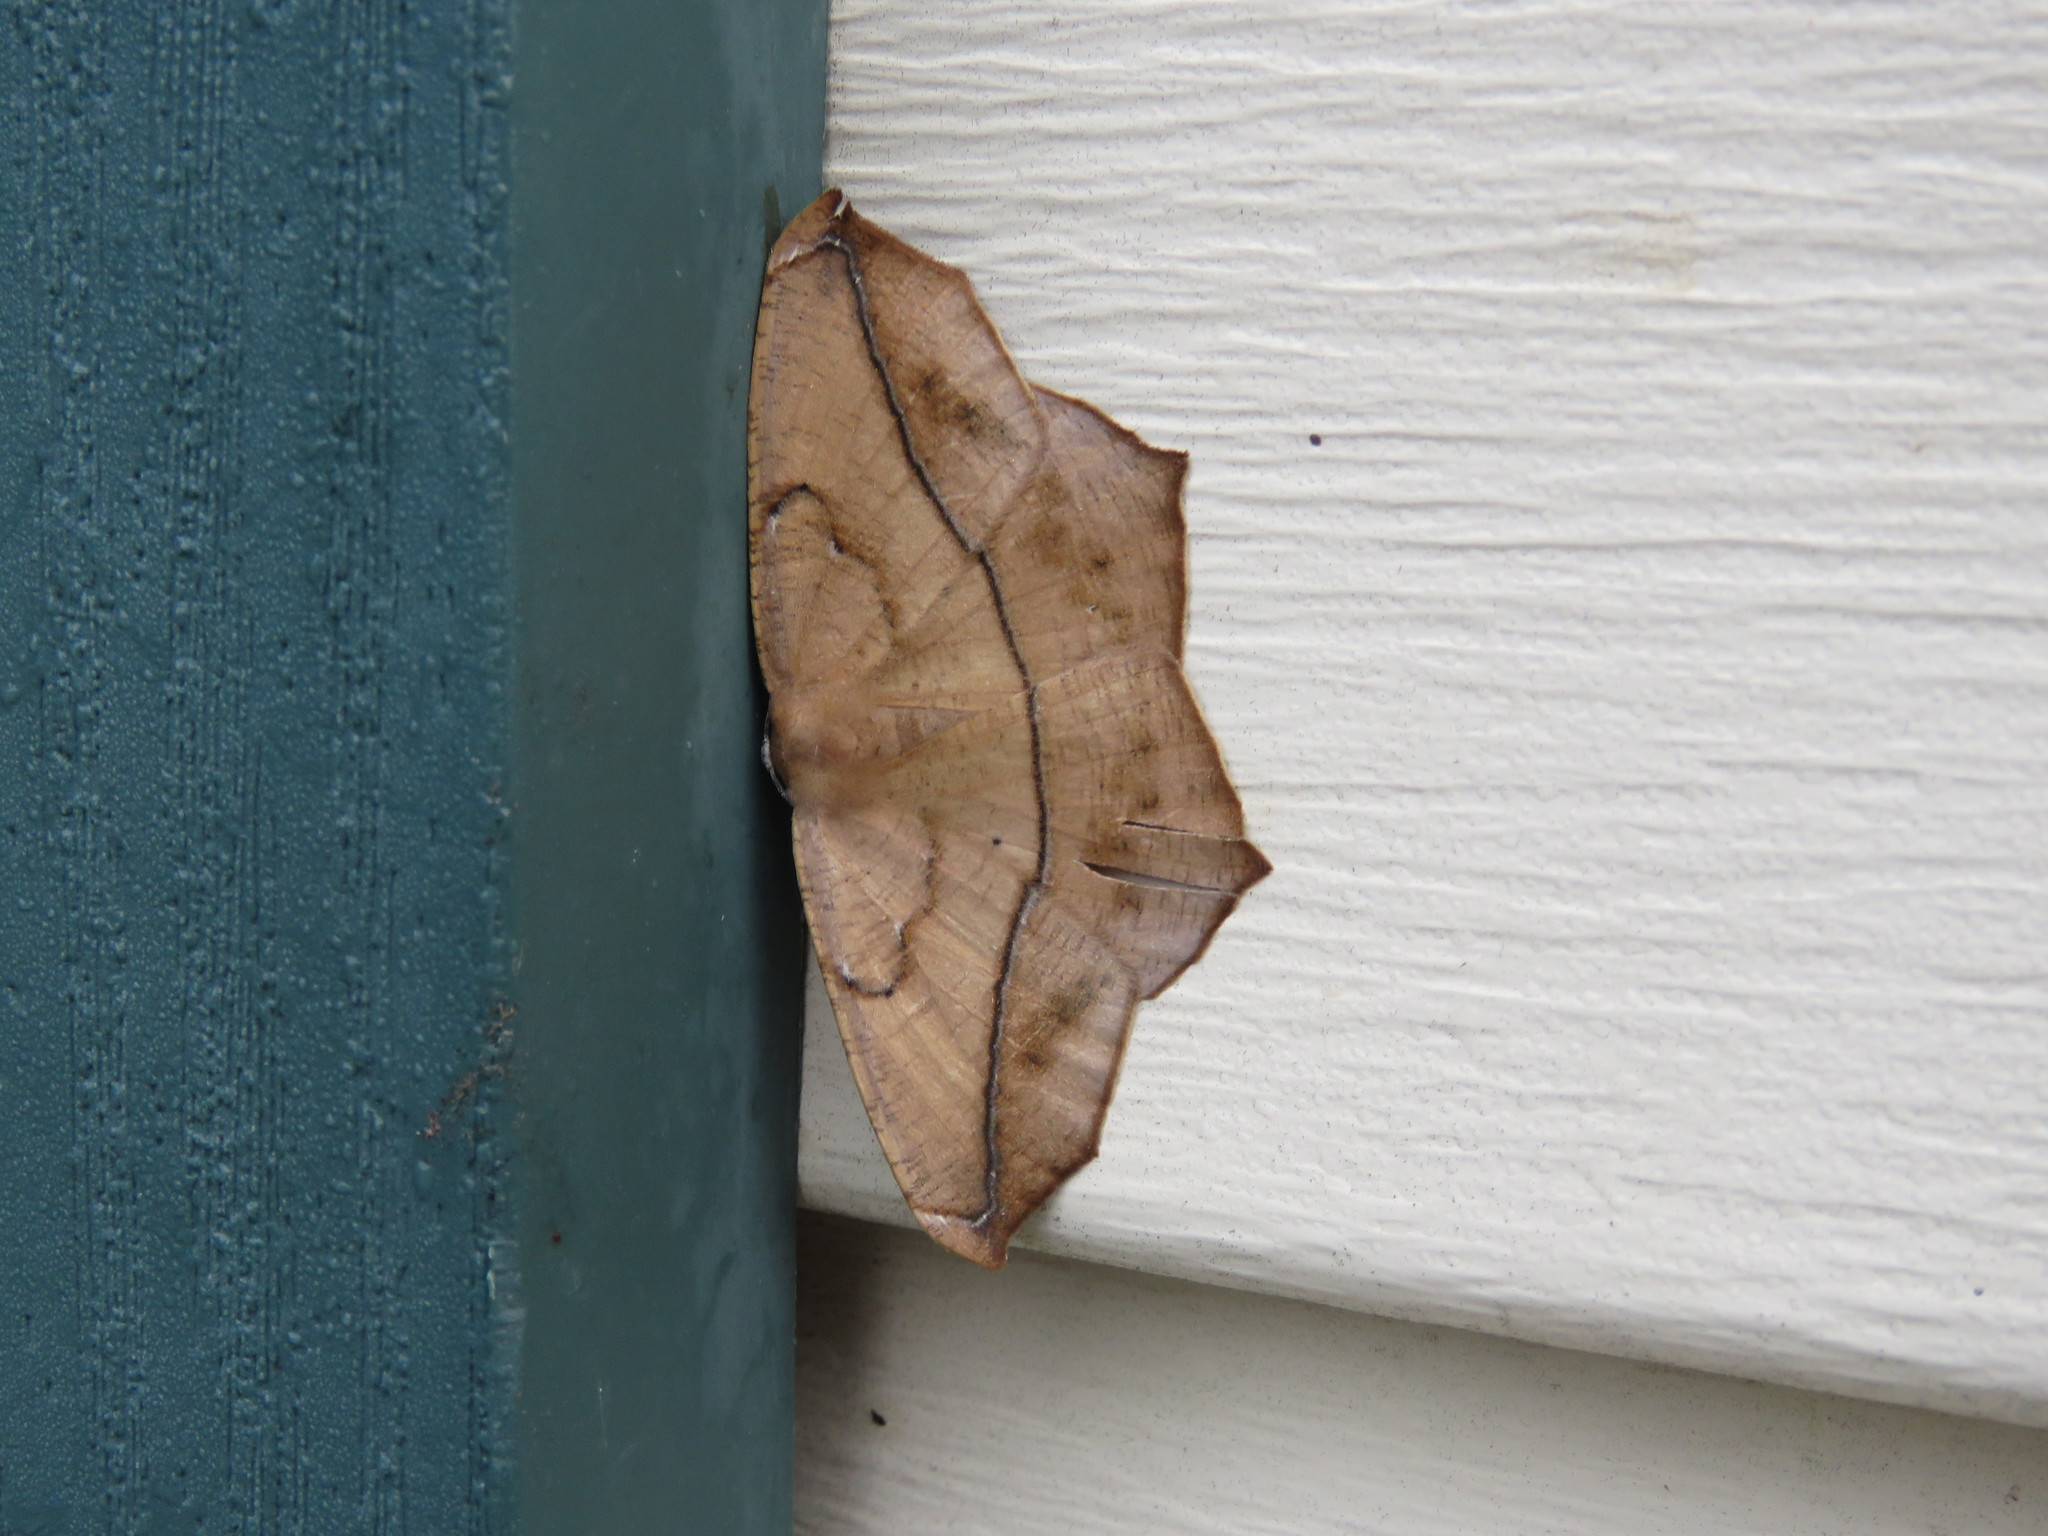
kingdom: Animalia
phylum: Arthropoda
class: Insecta
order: Lepidoptera
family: Geometridae
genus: Prochoerodes
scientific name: Prochoerodes lineola
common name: Large maple spanworm
